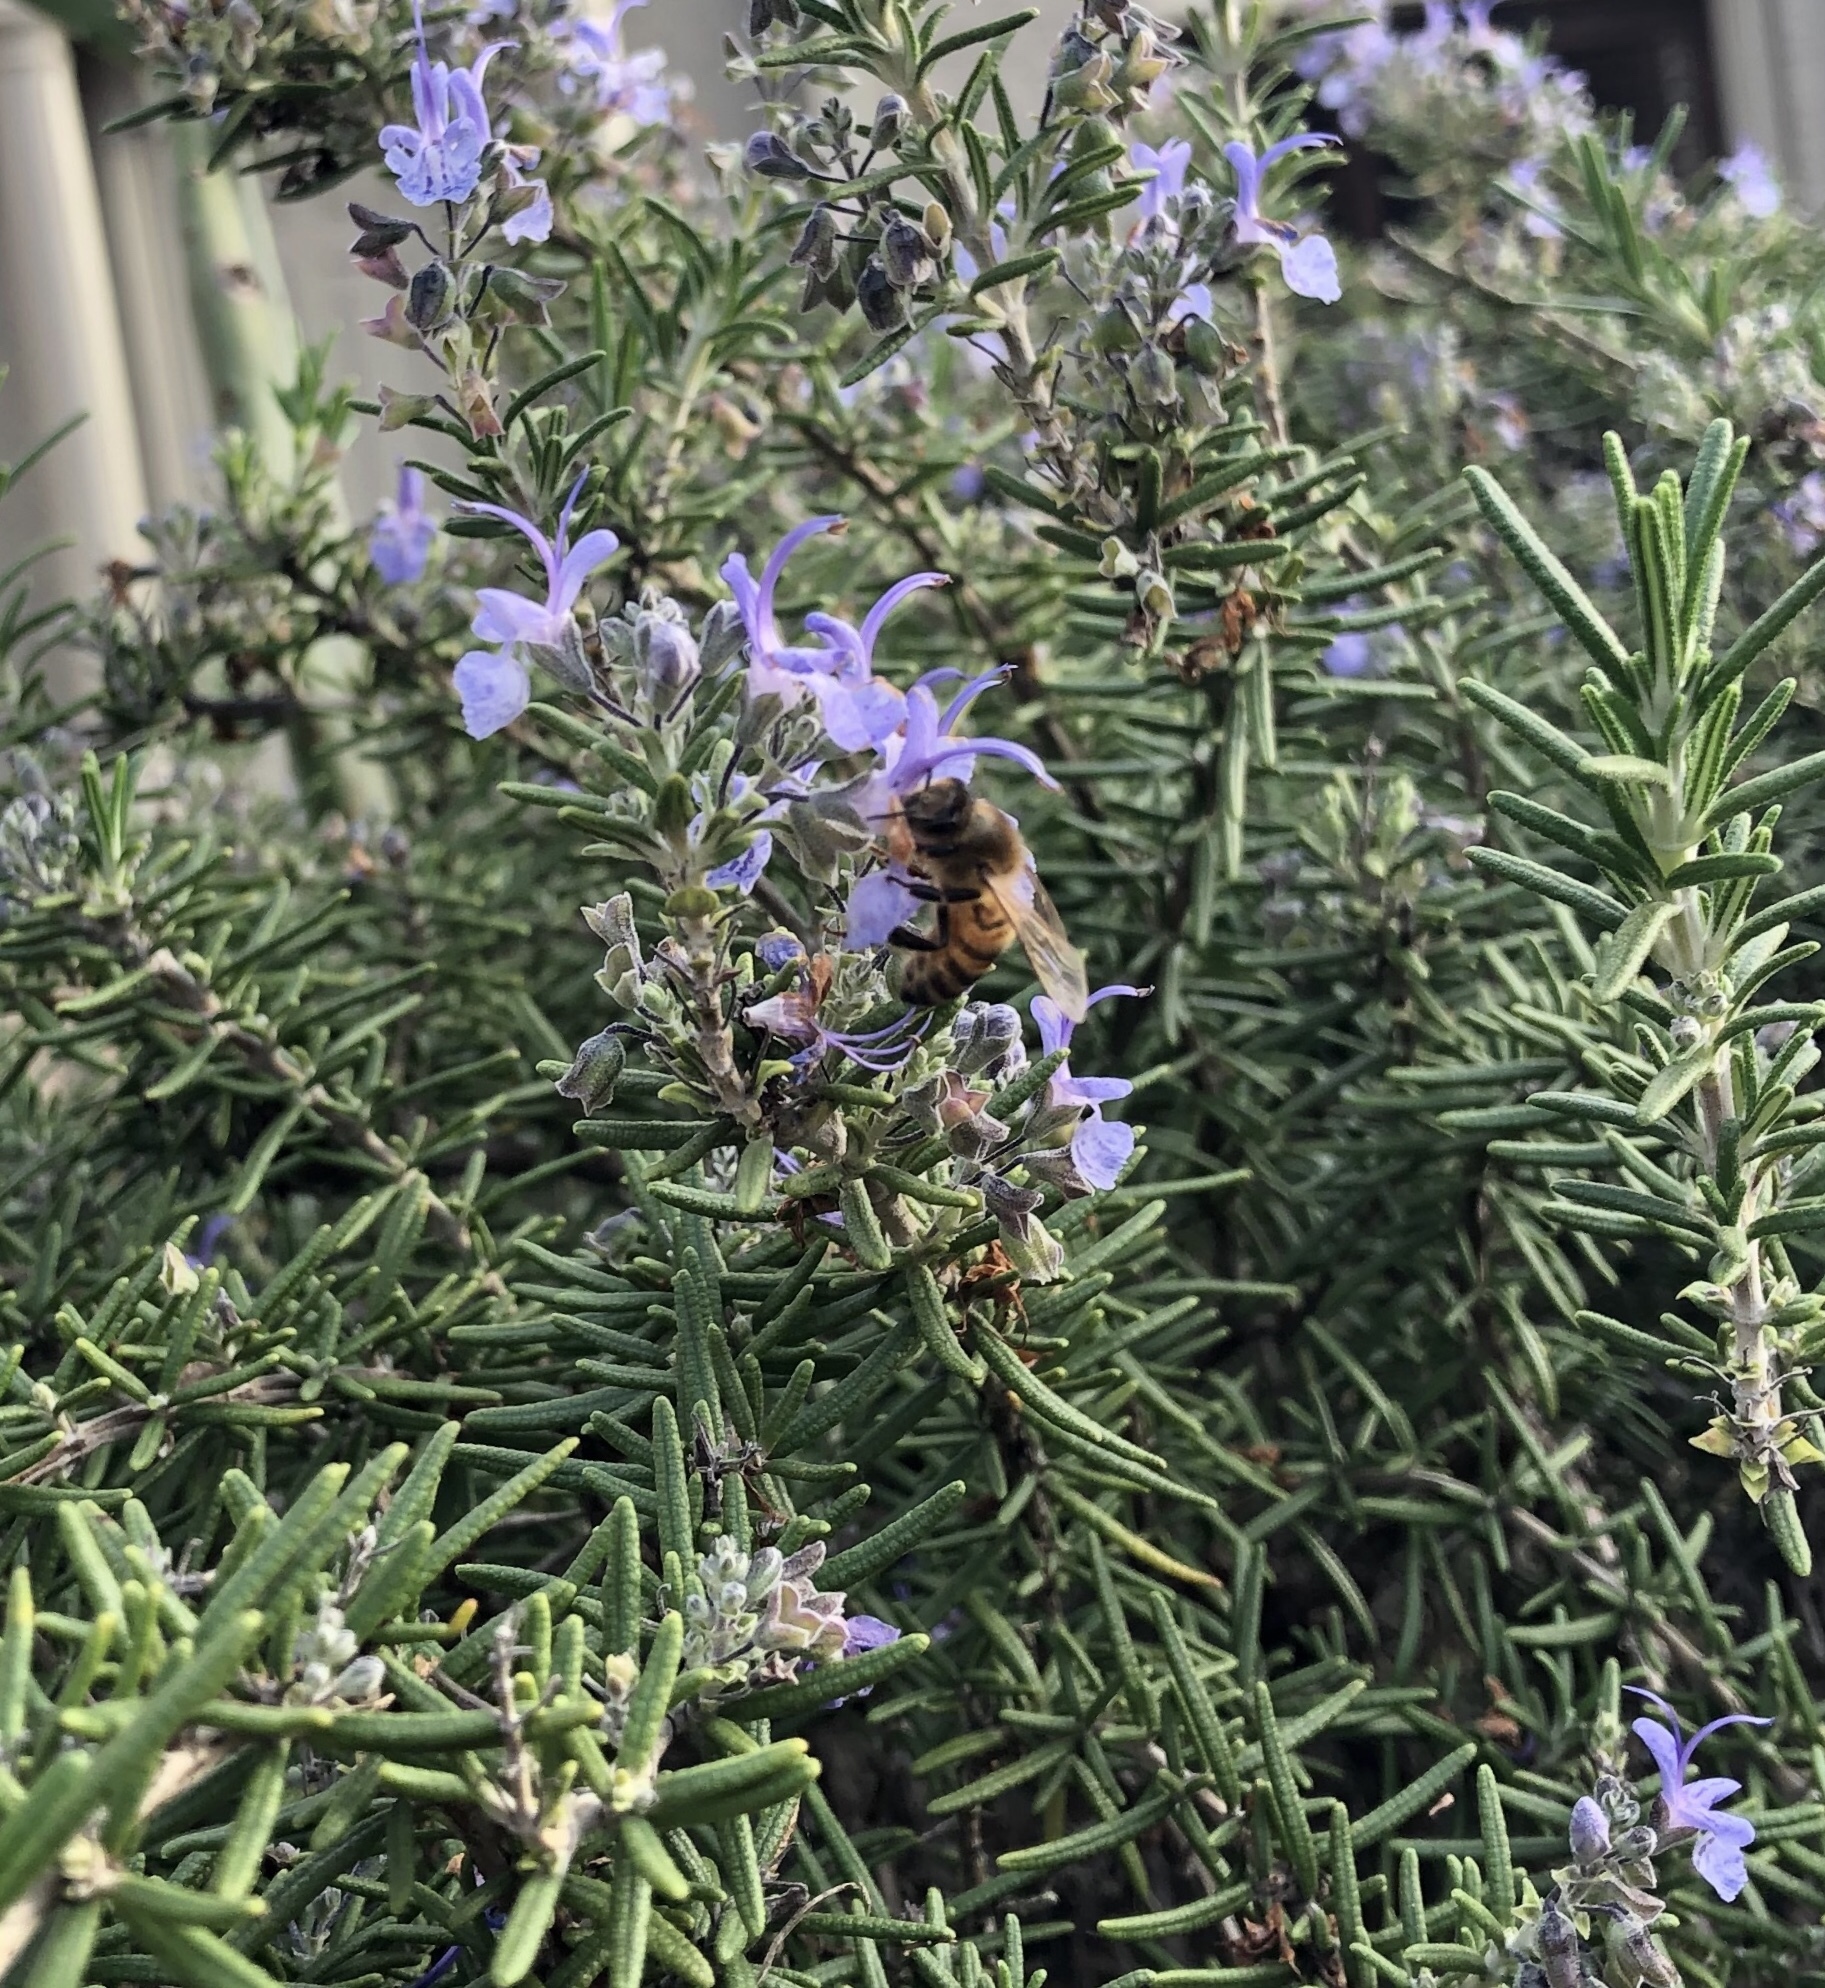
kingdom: Animalia
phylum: Arthropoda
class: Insecta
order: Hymenoptera
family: Apidae
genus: Apis
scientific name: Apis mellifera
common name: Honey bee
